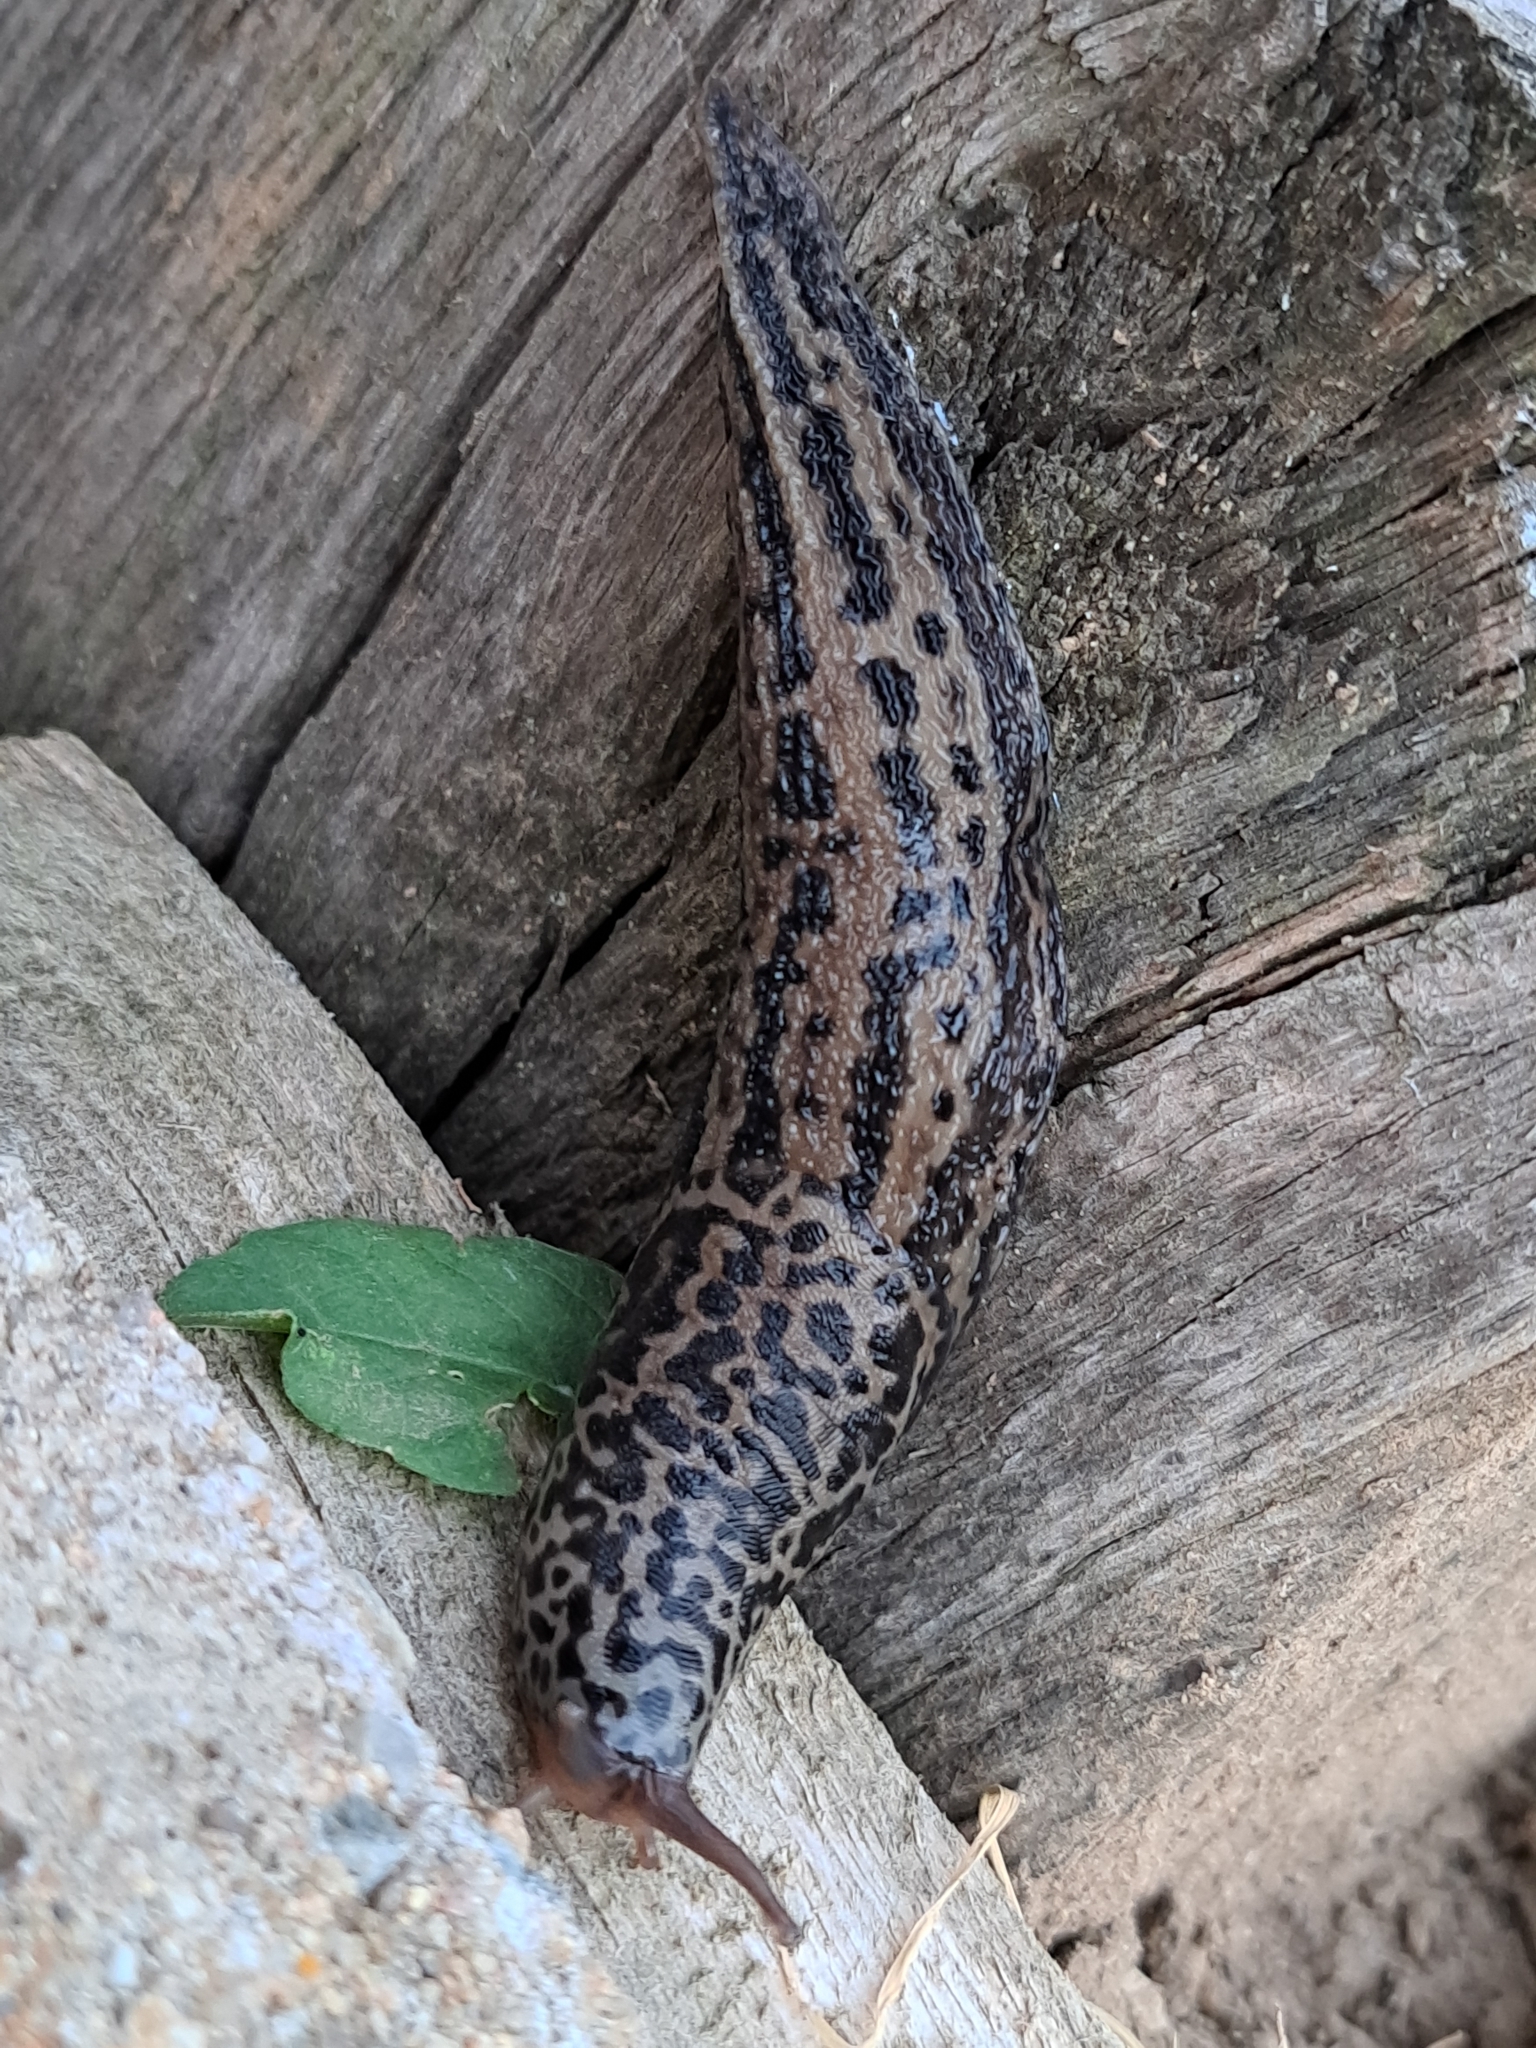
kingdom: Animalia
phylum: Mollusca
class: Gastropoda
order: Stylommatophora
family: Limacidae
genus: Limax
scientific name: Limax maximus
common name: Great grey slug
